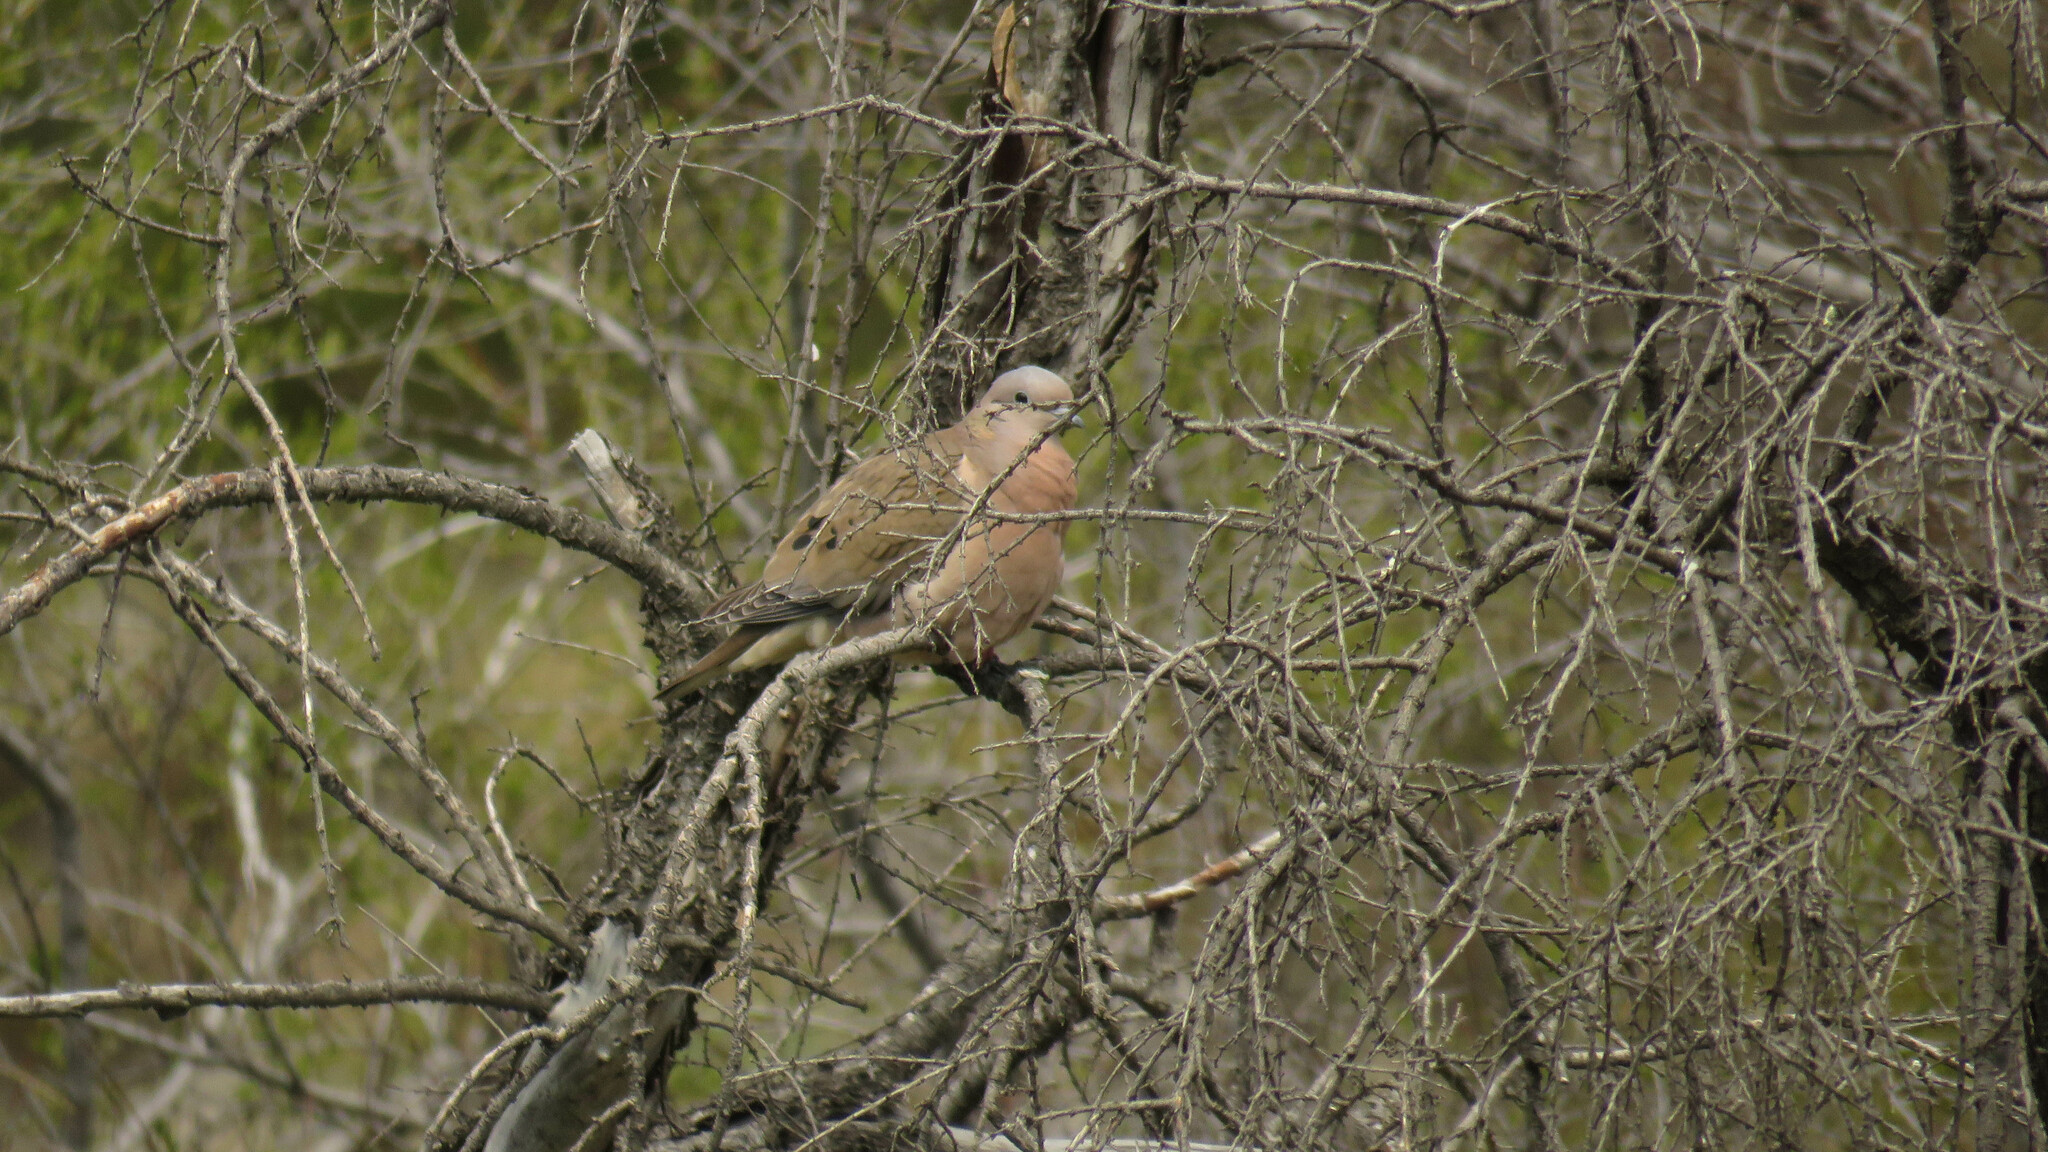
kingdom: Animalia
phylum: Chordata
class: Aves
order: Columbiformes
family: Columbidae
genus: Zenaida
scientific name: Zenaida auriculata
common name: Eared dove
